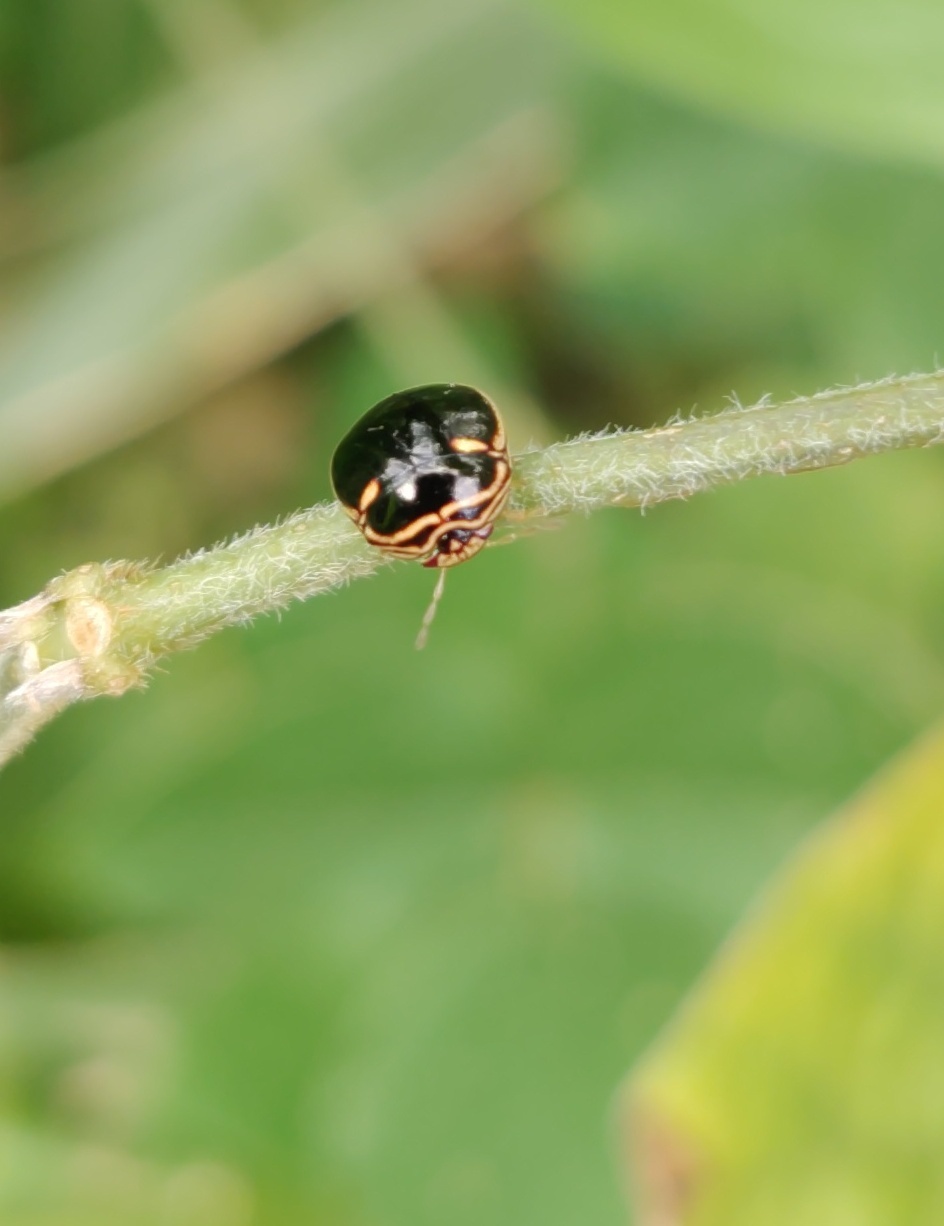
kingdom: Animalia
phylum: Arthropoda
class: Insecta
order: Hemiptera
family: Plataspidae
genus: Coptosoma
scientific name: Coptosoma
